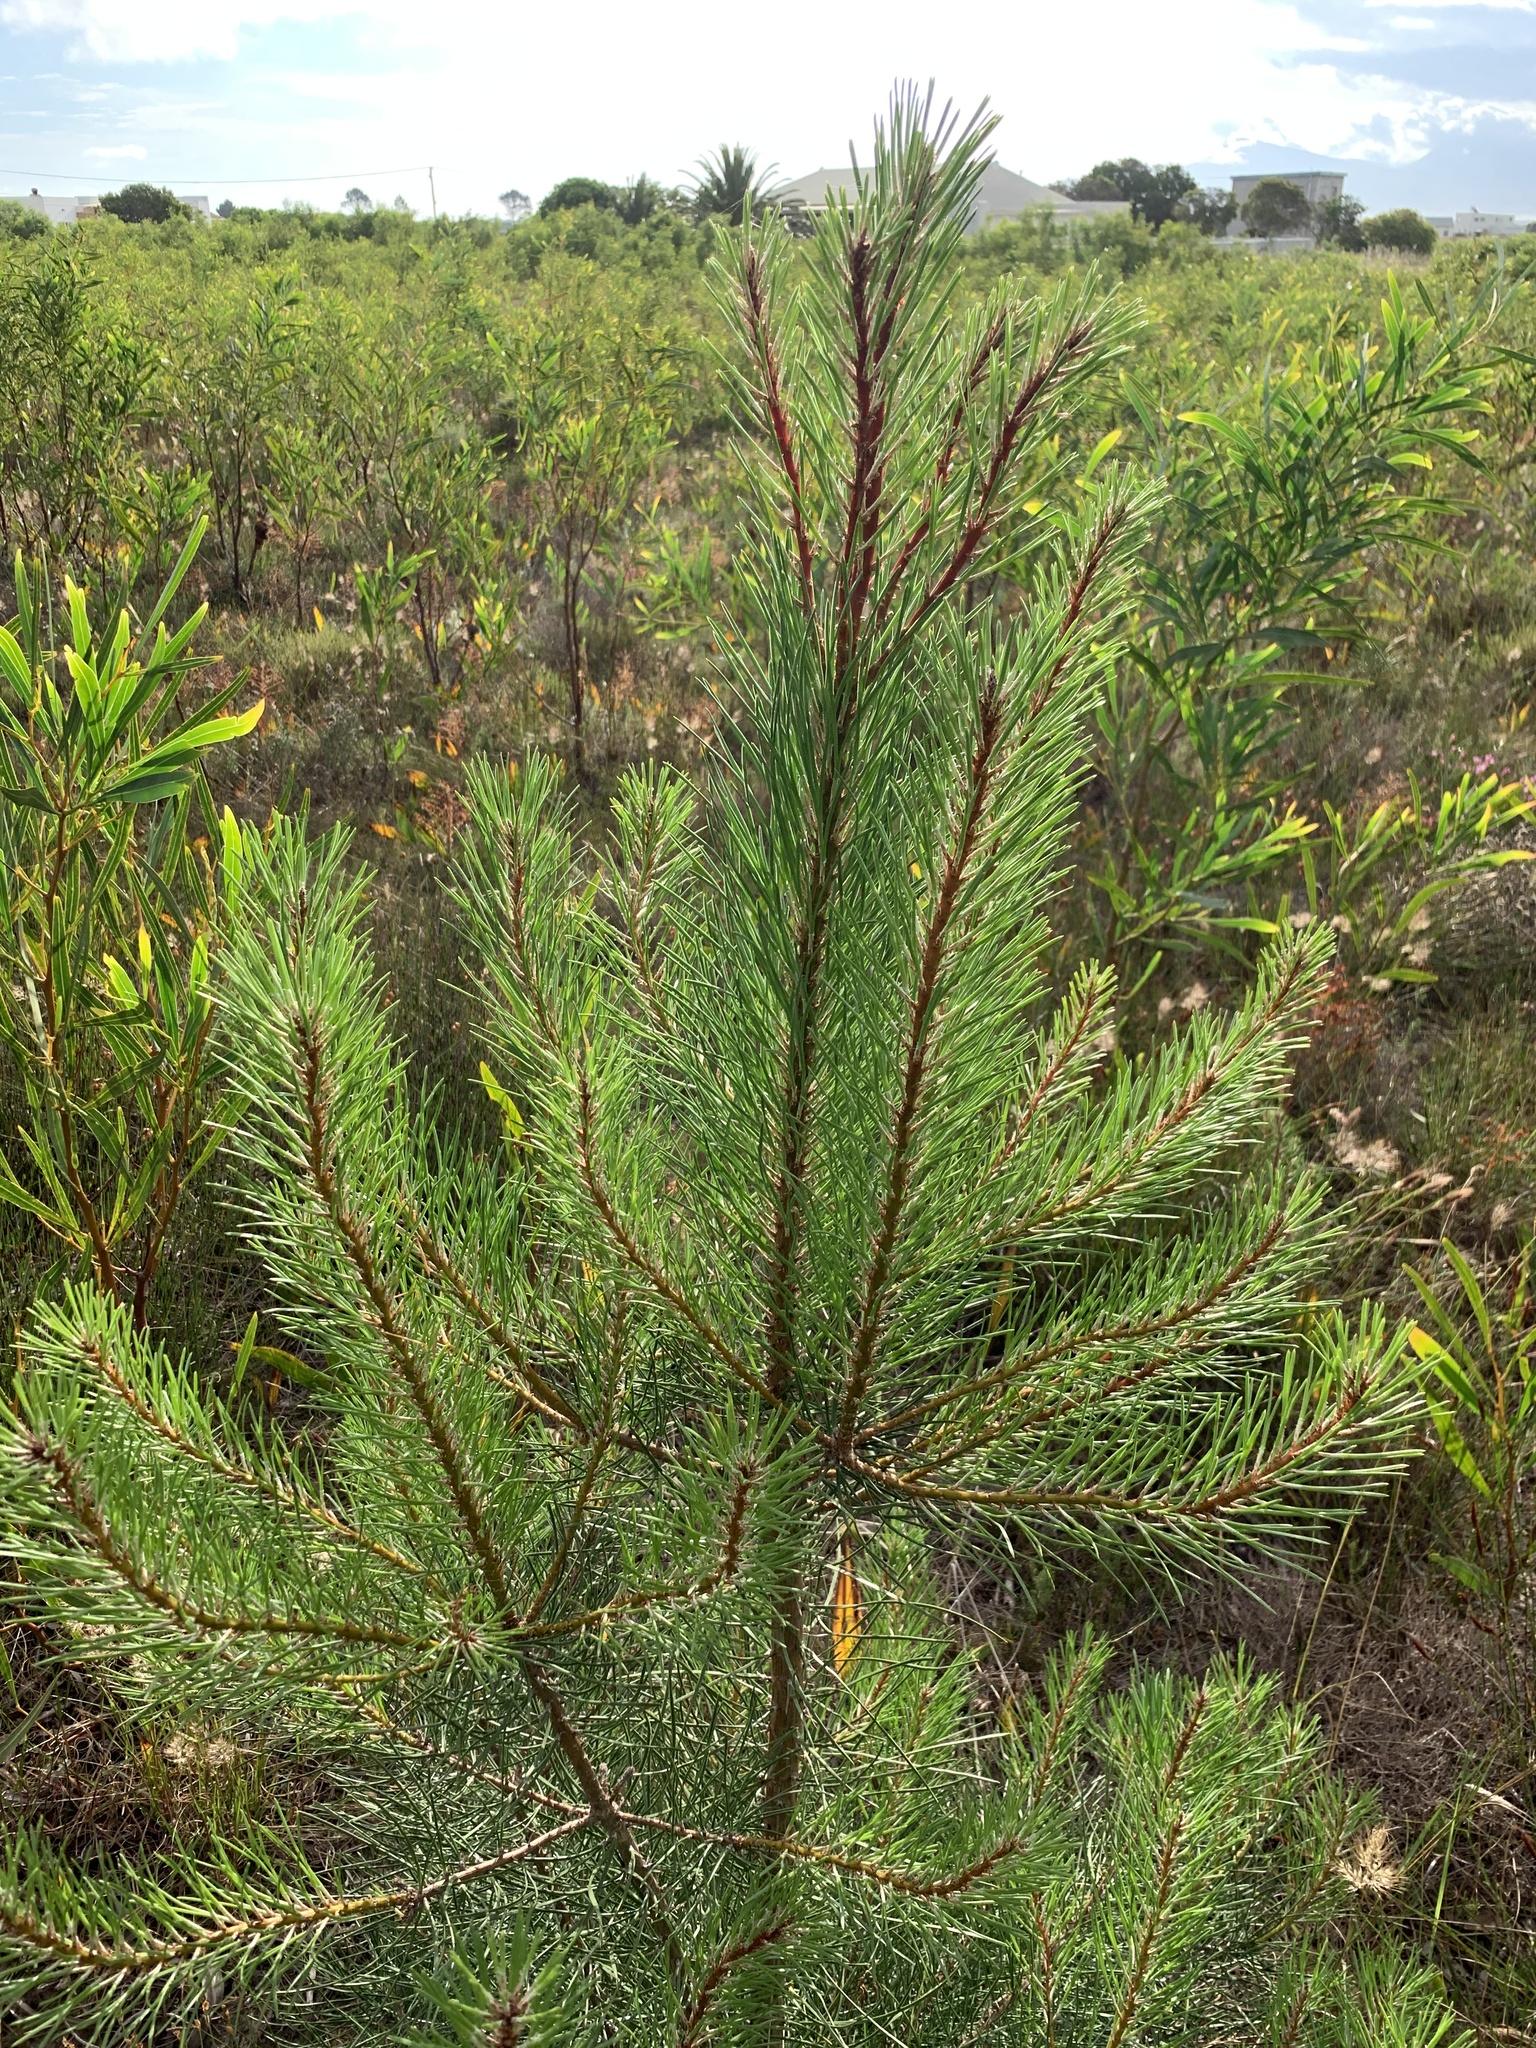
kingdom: Plantae
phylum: Tracheophyta
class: Pinopsida
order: Pinales
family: Pinaceae
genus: Pinus
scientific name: Pinus pinaster
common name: Maritime pine
